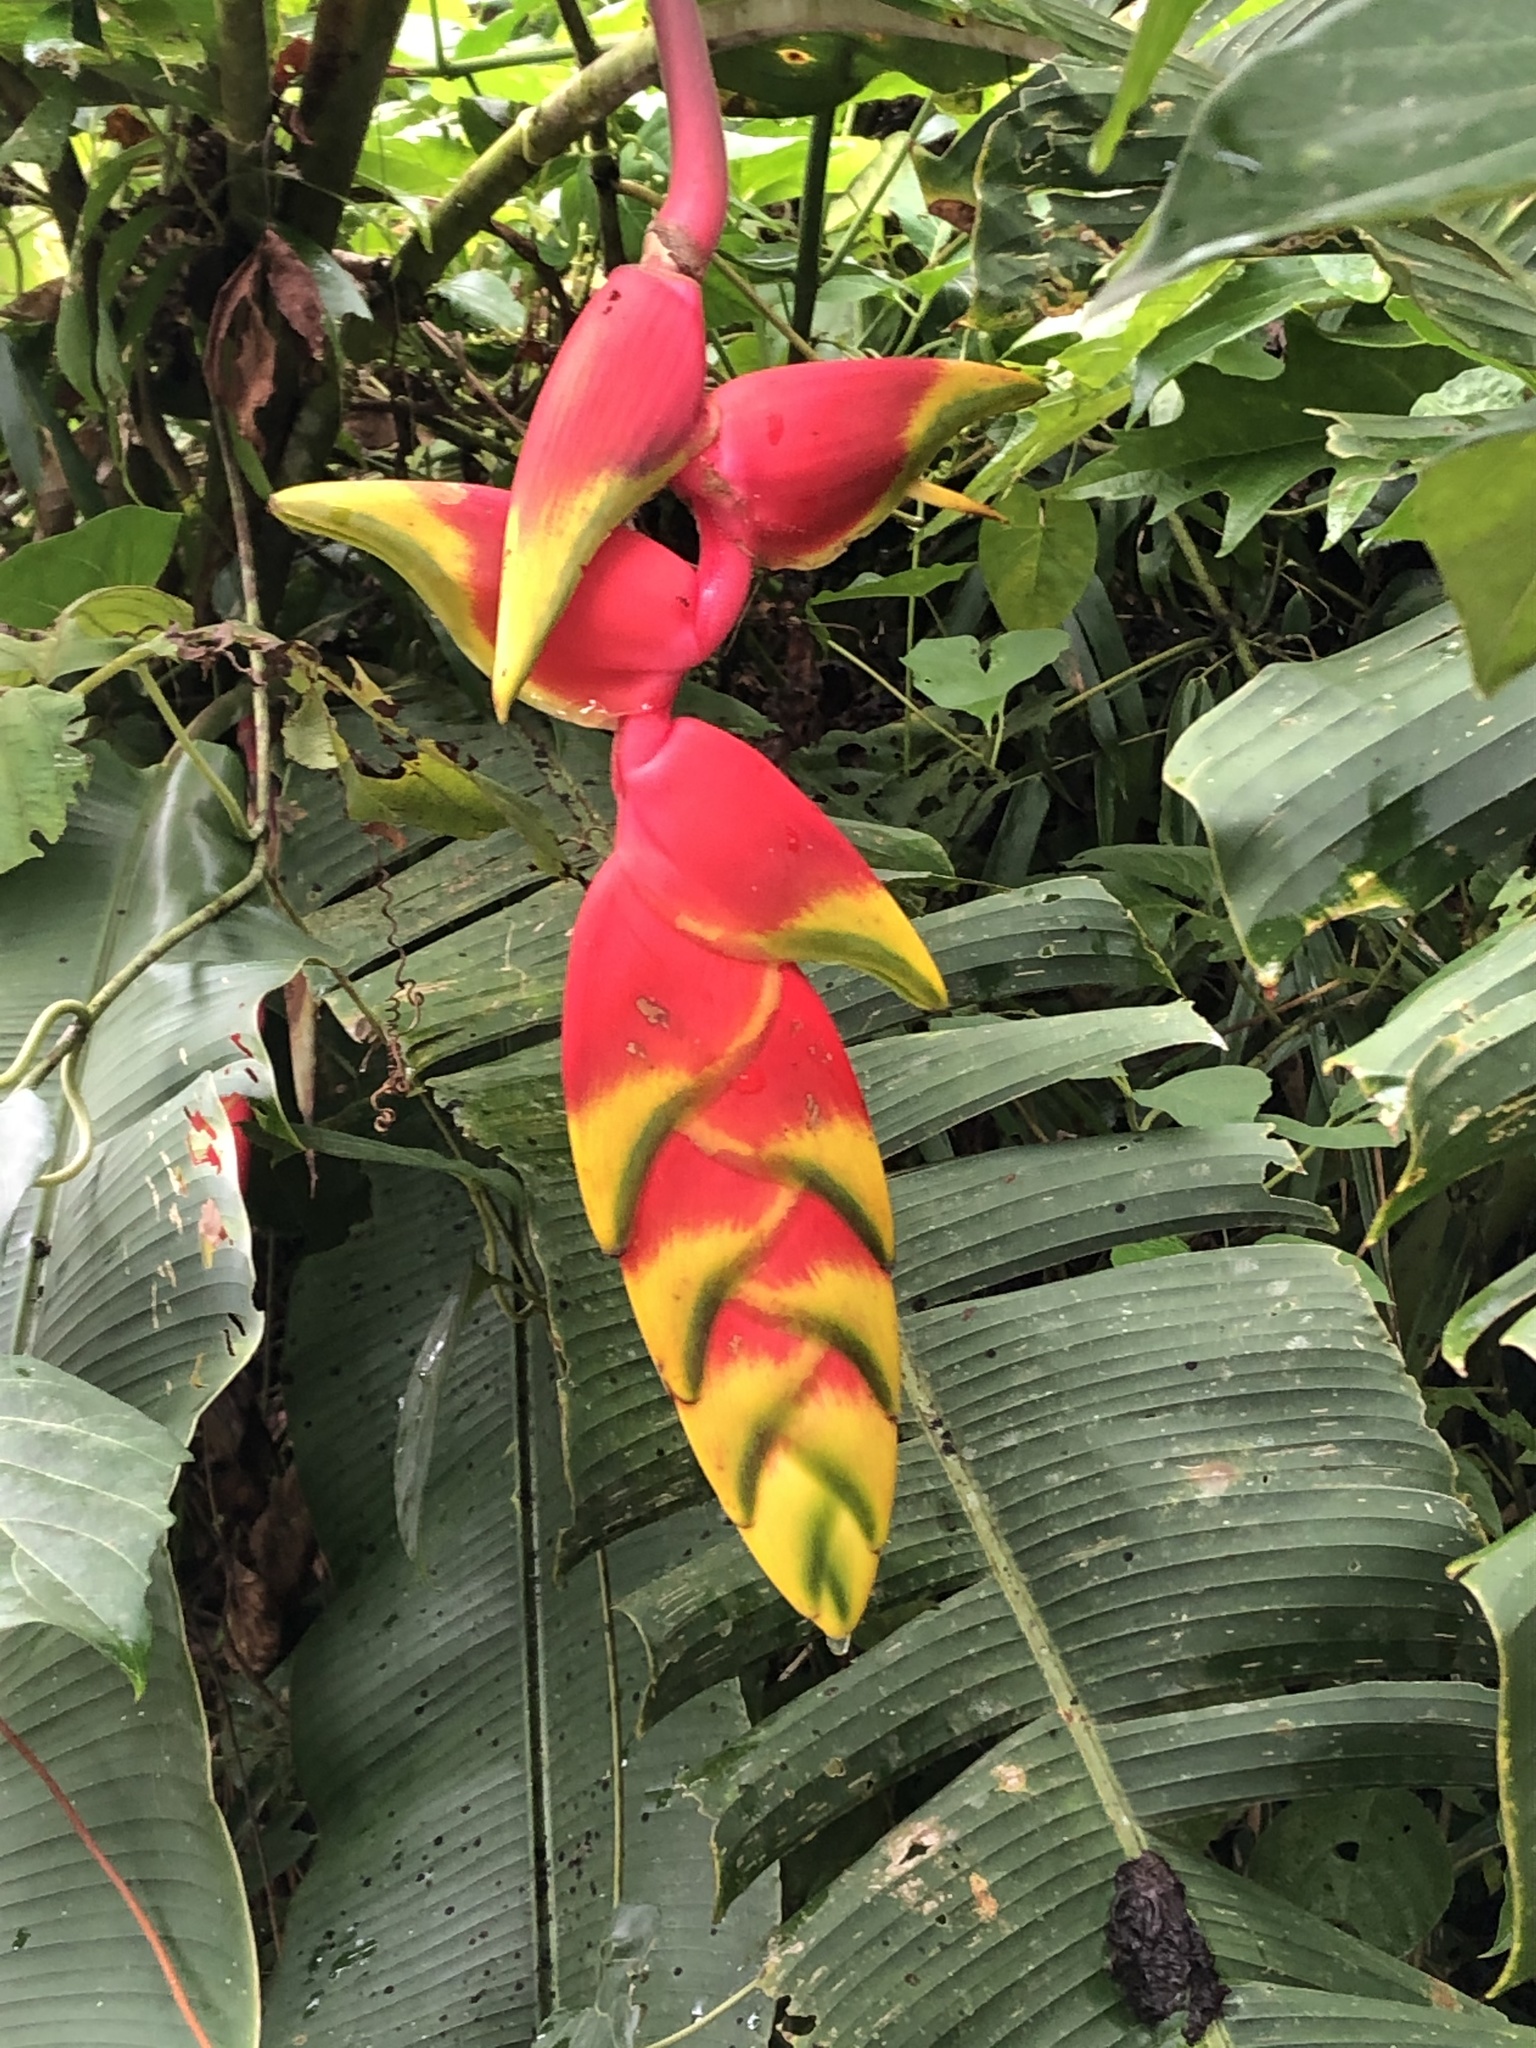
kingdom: Plantae
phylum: Tracheophyta
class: Liliopsida
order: Zingiberales
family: Heliconiaceae
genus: Heliconia
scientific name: Heliconia rostrata
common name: False bird of paradise
